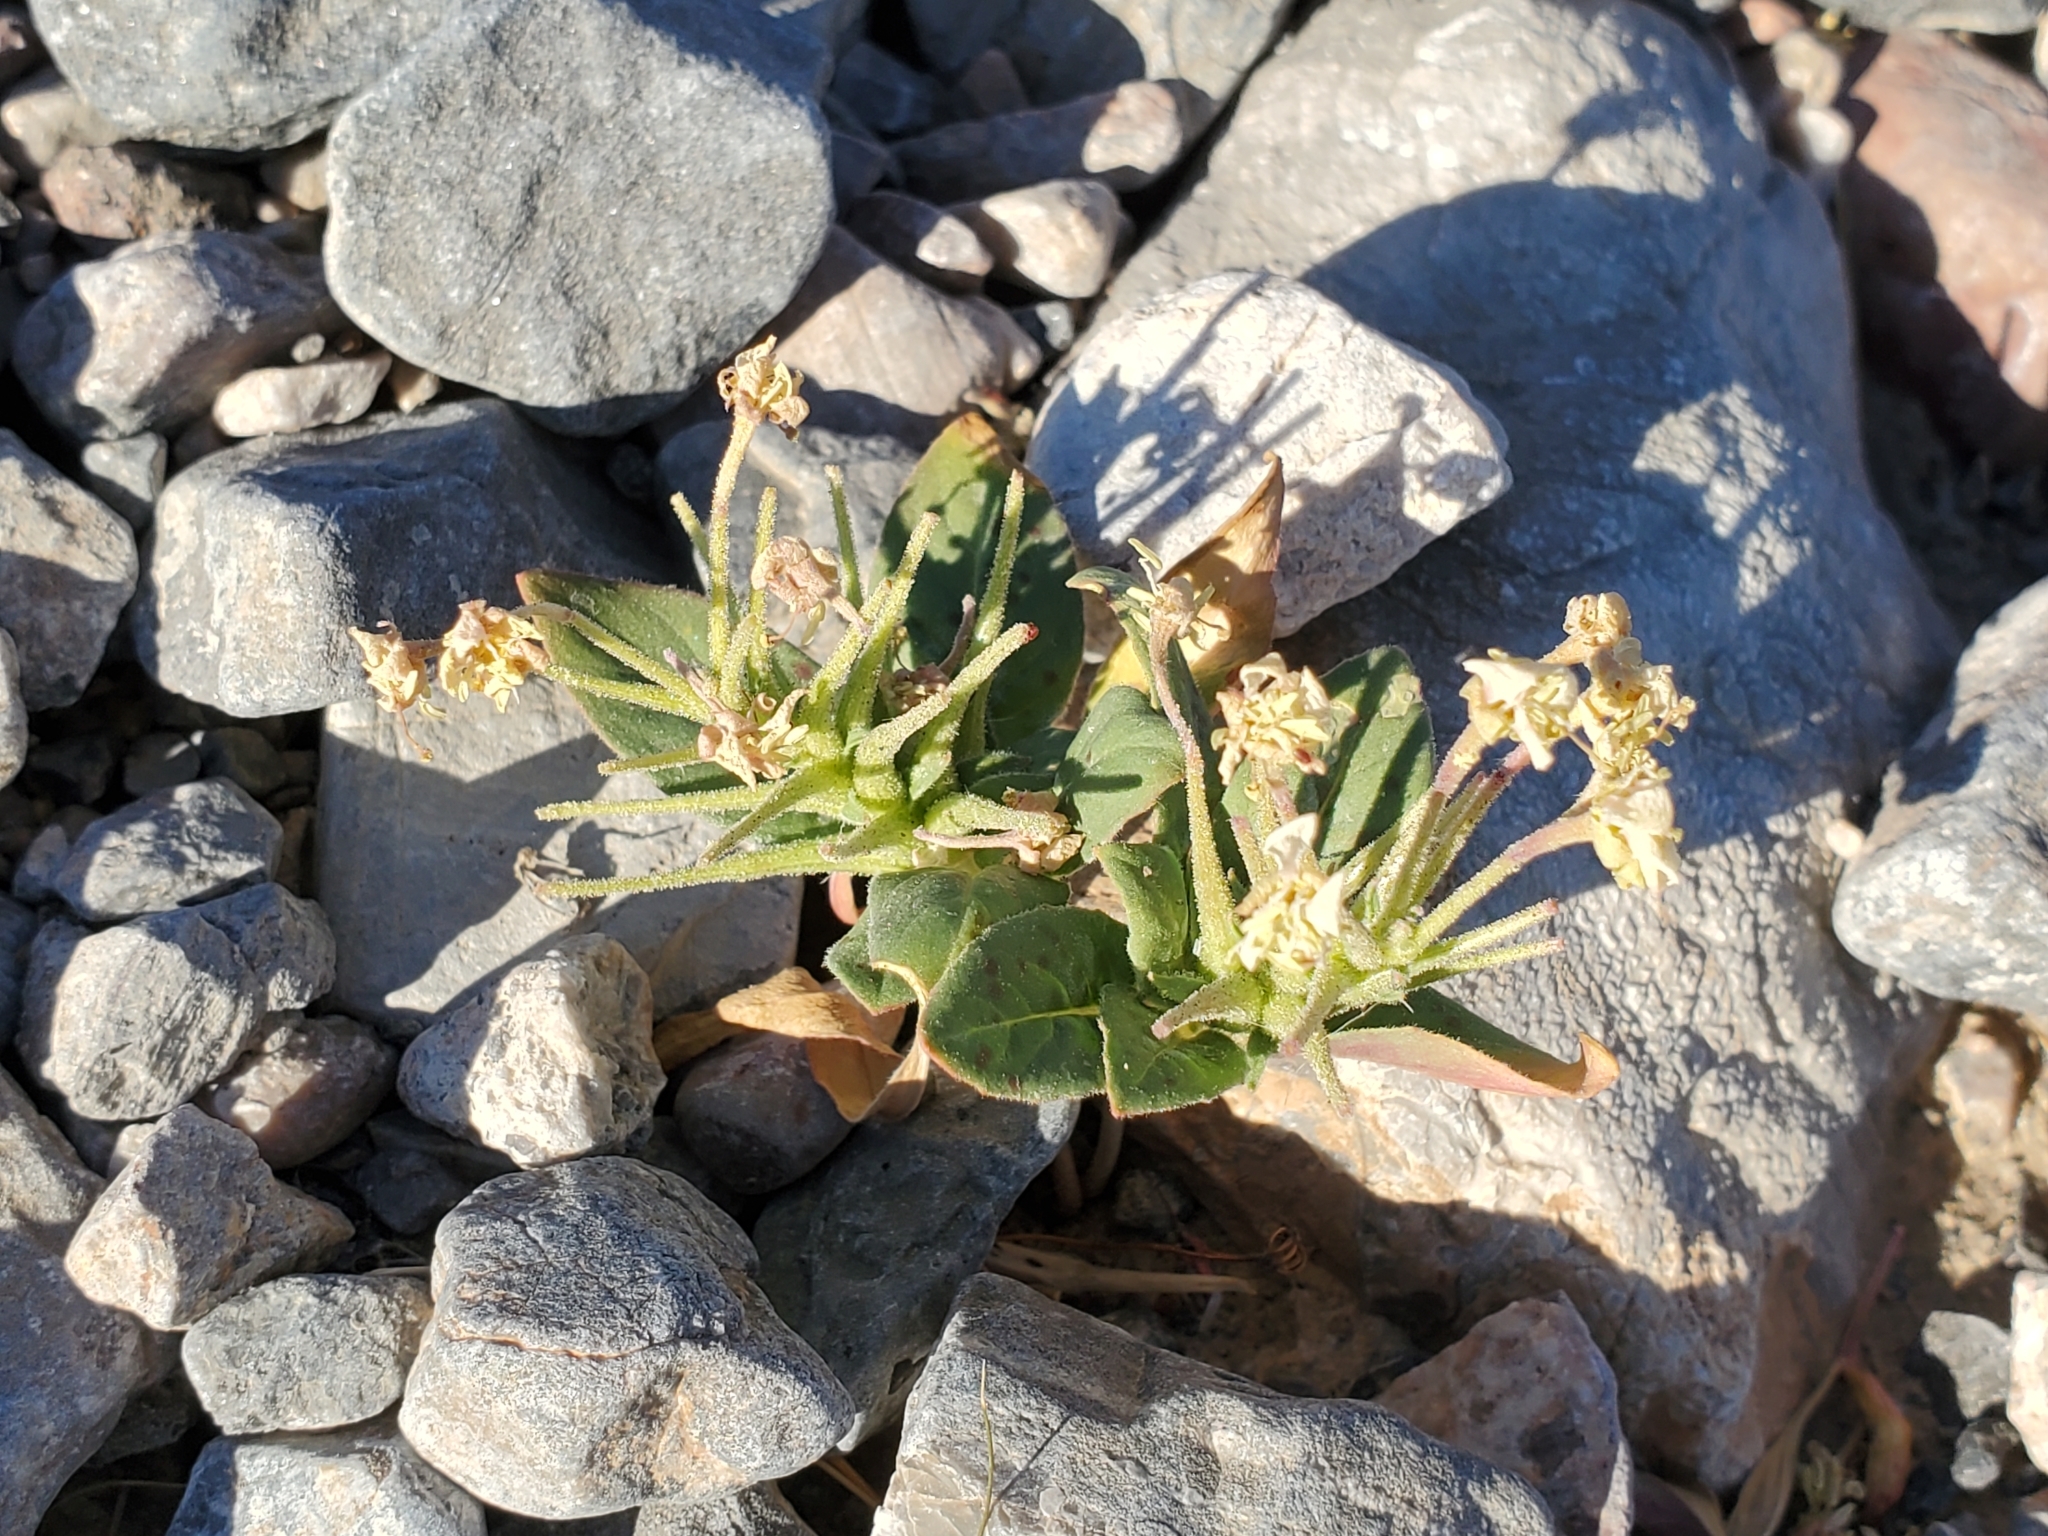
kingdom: Plantae
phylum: Tracheophyta
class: Magnoliopsida
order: Myrtales
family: Onagraceae
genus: Eremothera
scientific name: Eremothera boothii
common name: Booth's evening primrose
